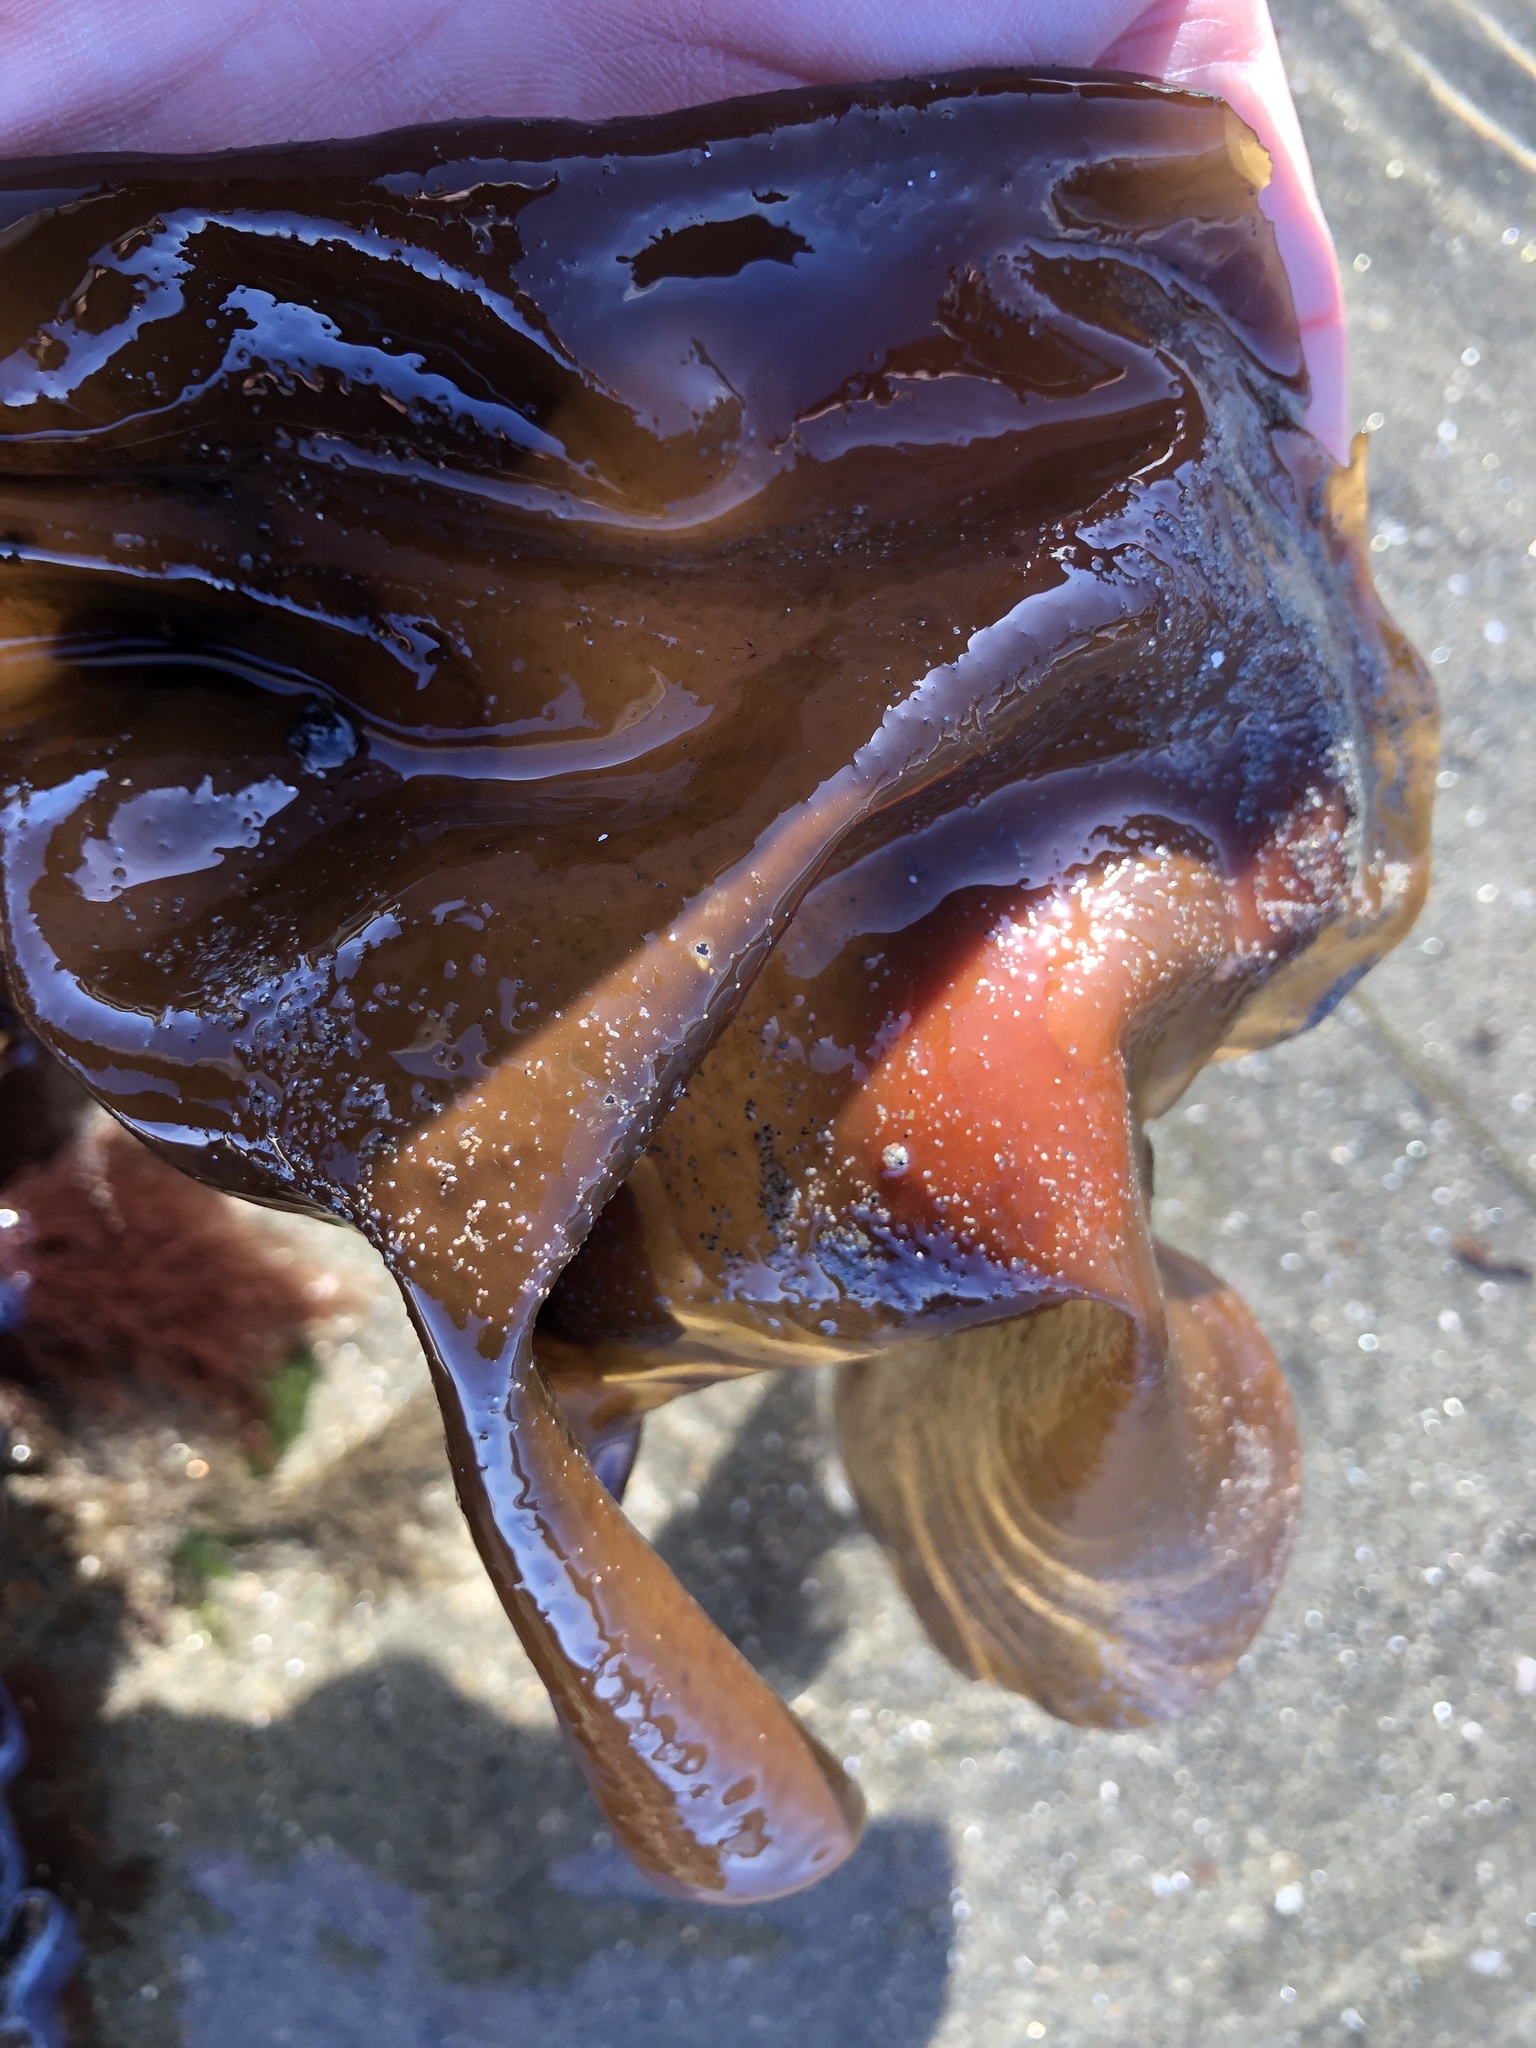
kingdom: Plantae
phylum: Rhodophyta
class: Florideophyceae
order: Gigartinales
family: Gigartinaceae
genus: Mazzaella
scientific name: Mazzaella splendens
